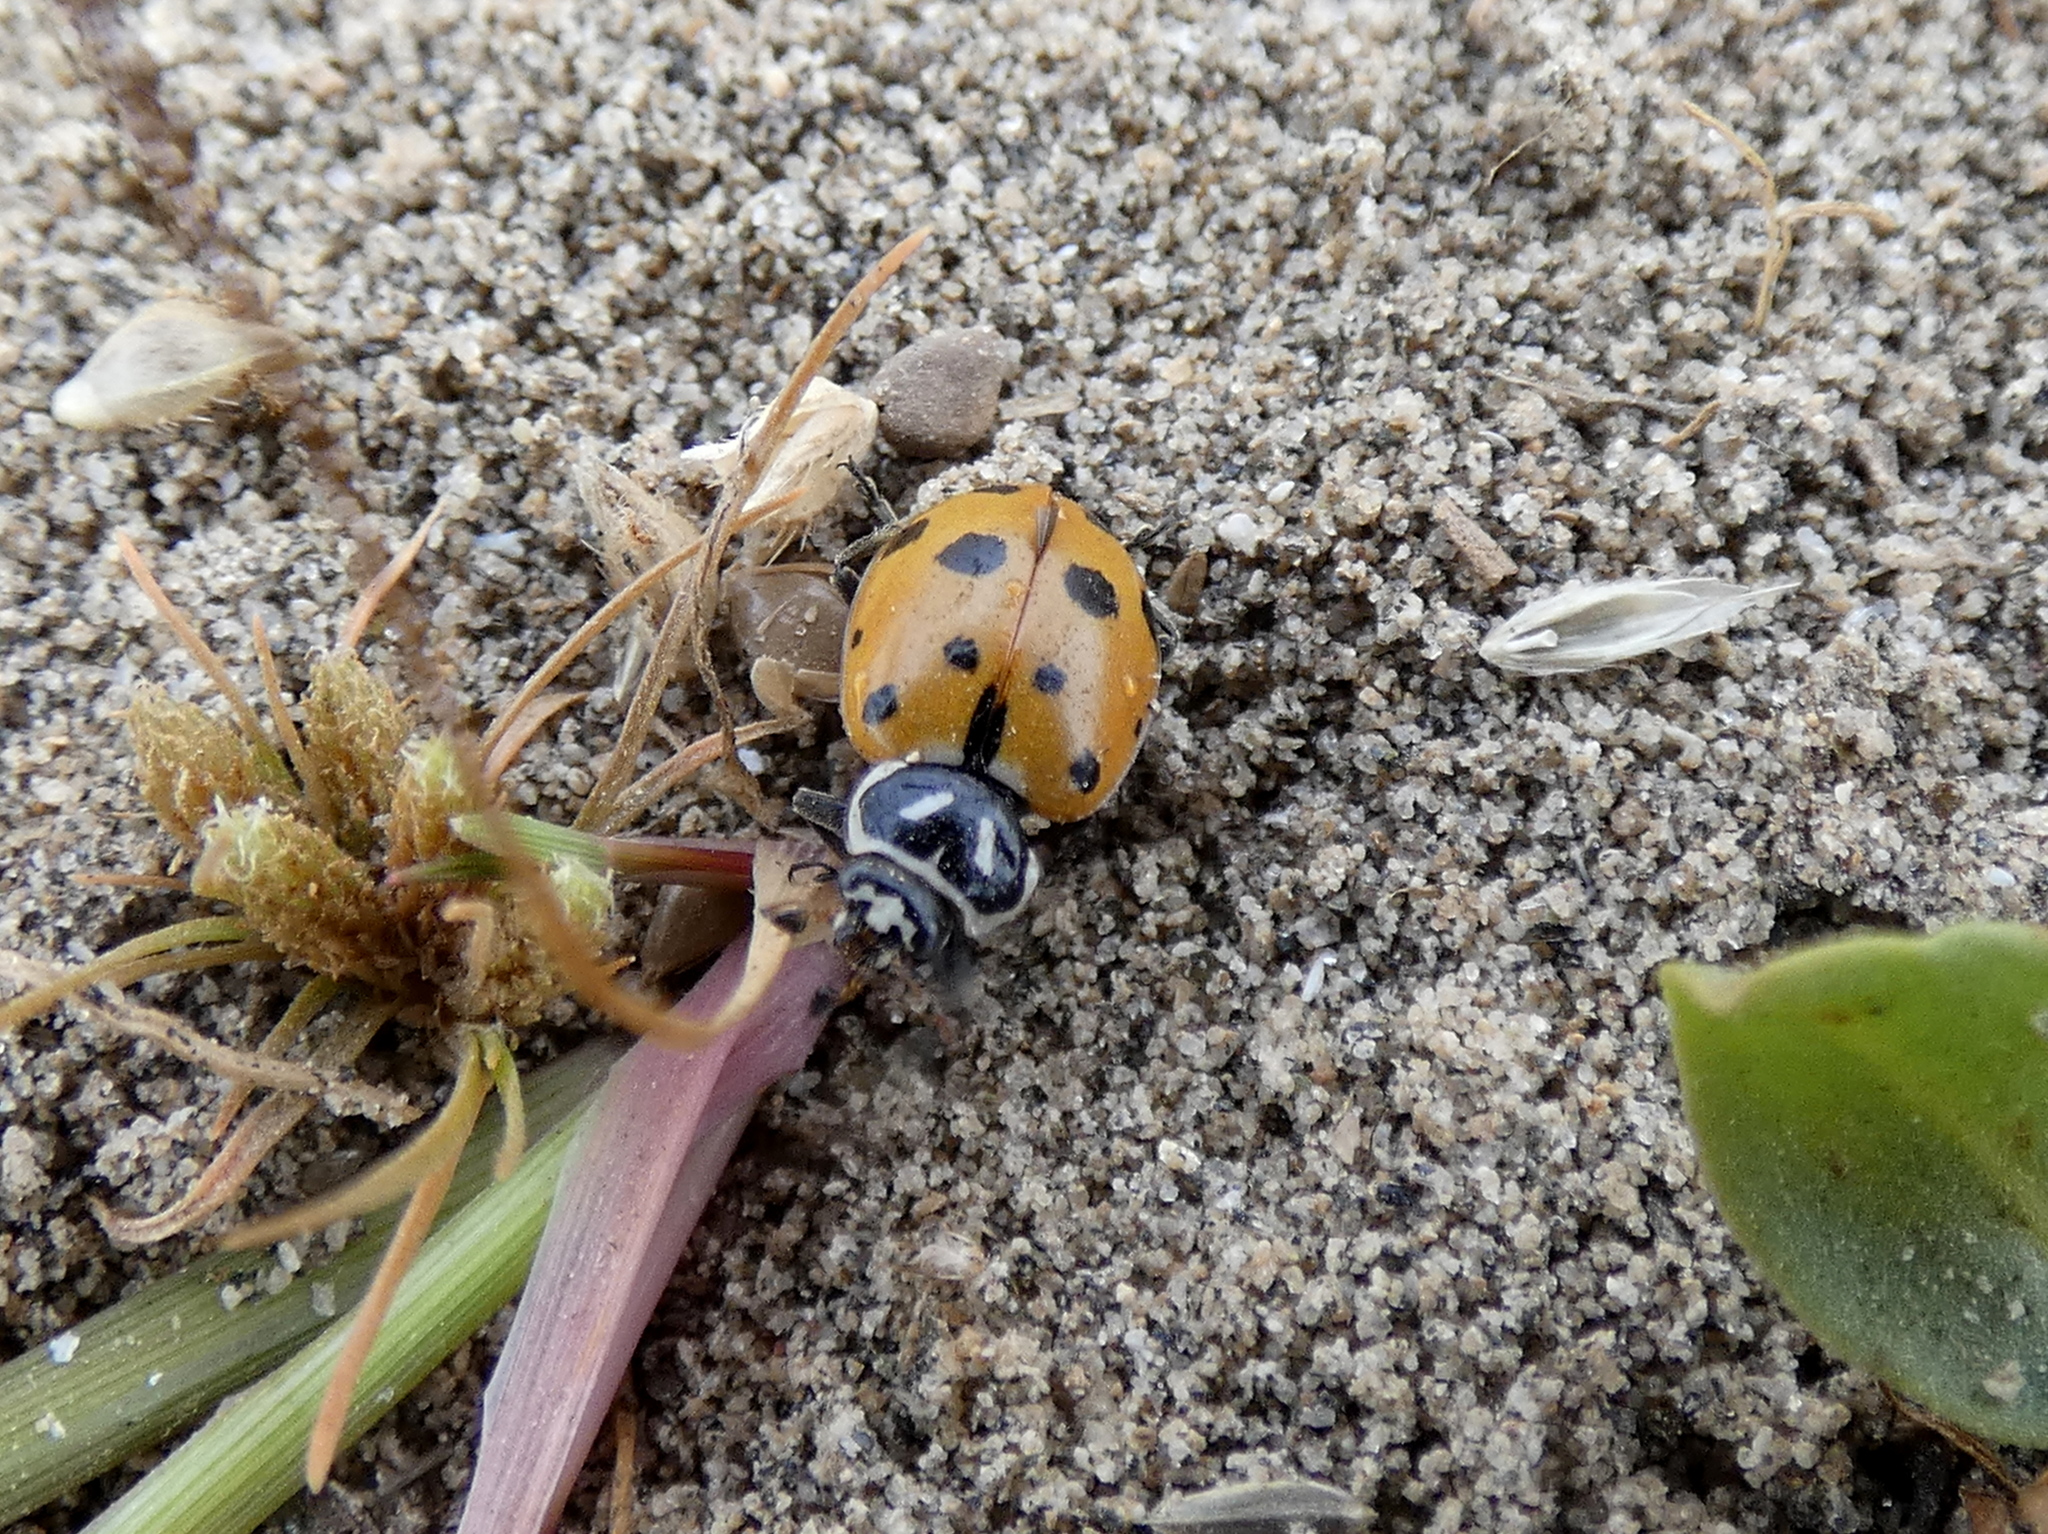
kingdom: Animalia
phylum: Arthropoda
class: Insecta
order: Coleoptera
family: Coccinellidae
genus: Hippodamia
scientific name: Hippodamia convergens
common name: Convergent lady beetle
